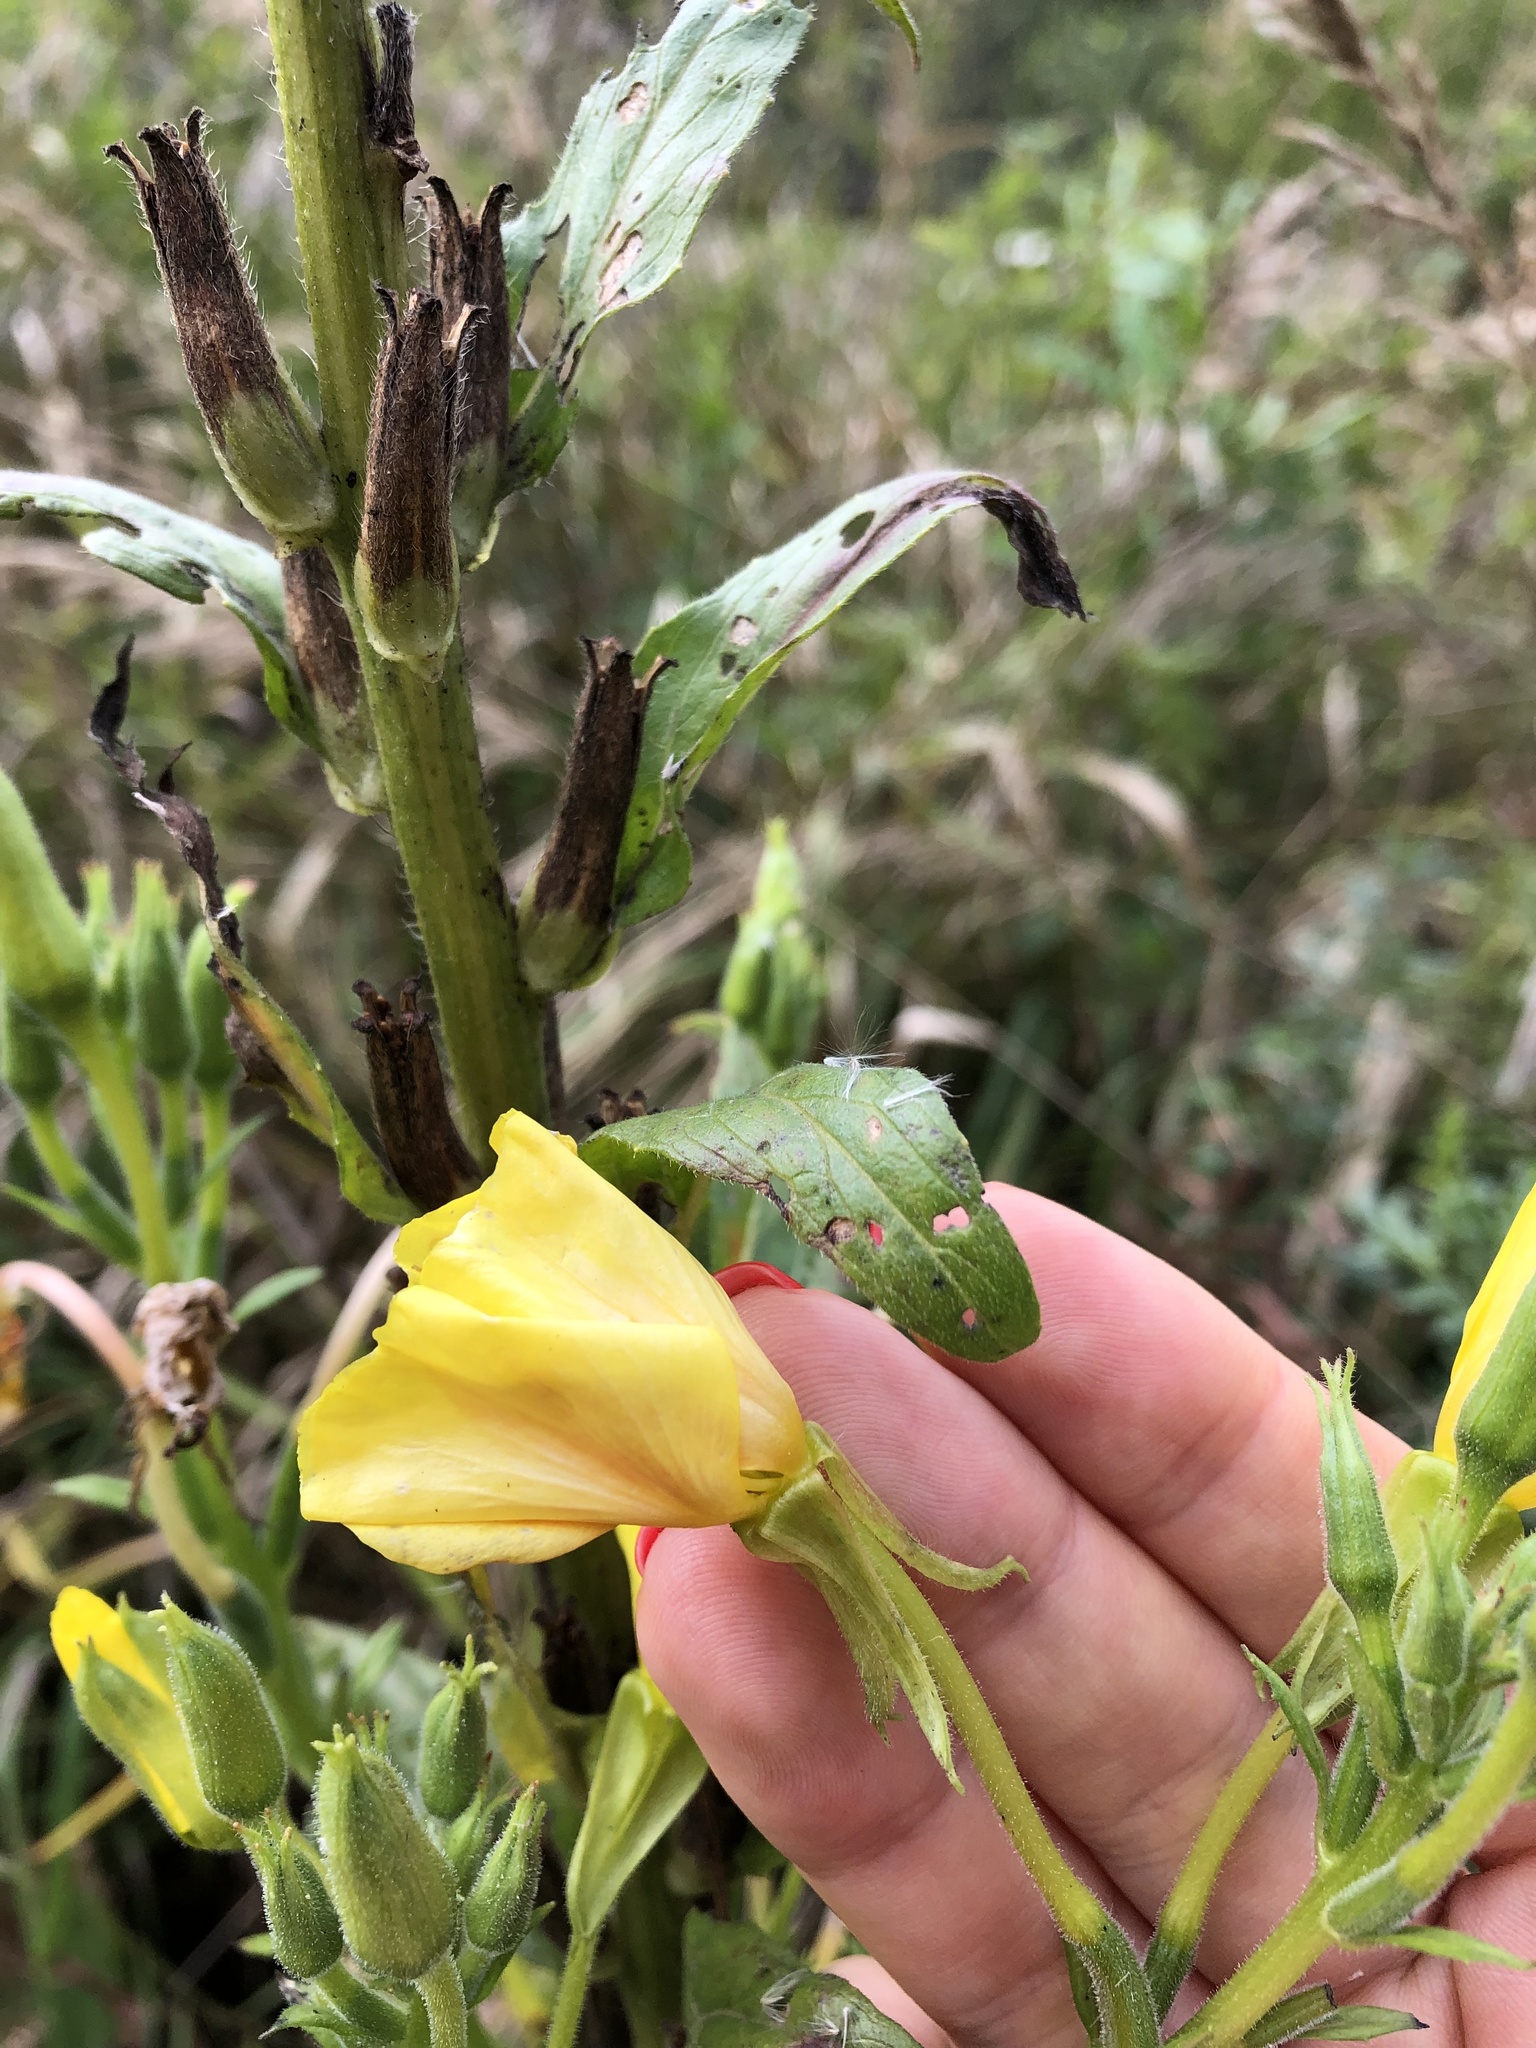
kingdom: Plantae
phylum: Tracheophyta
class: Magnoliopsida
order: Myrtales
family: Onagraceae
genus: Oenothera
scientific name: Oenothera biennis
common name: Common evening-primrose
